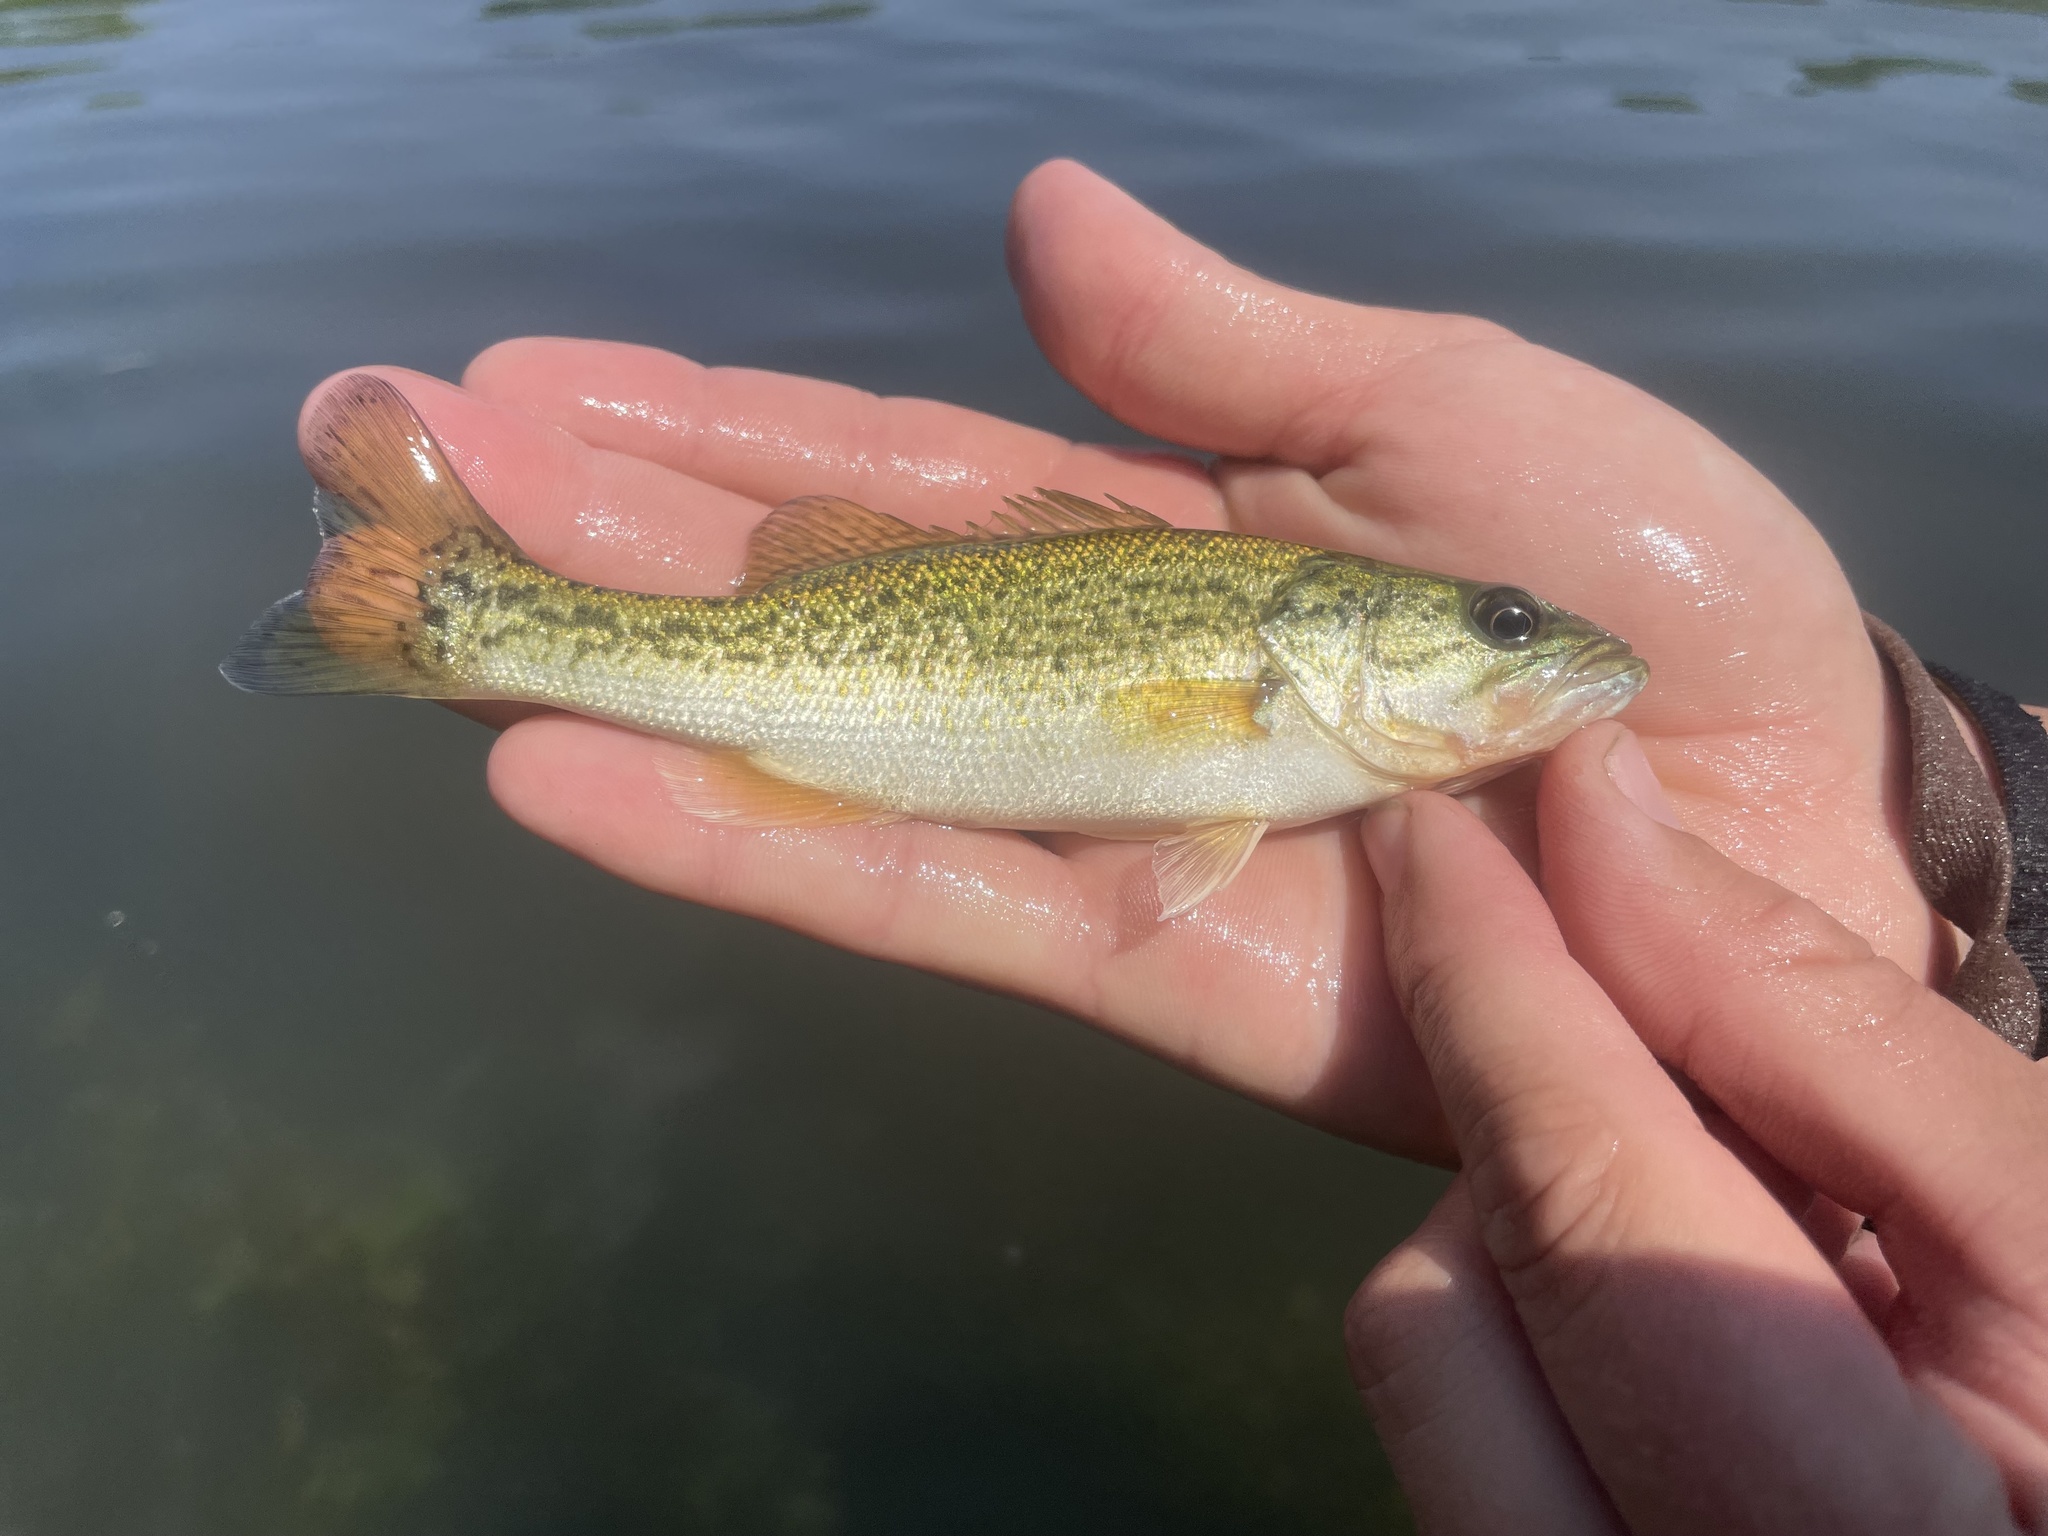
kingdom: Animalia
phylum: Chordata
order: Perciformes
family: Centrarchidae
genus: Micropterus
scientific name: Micropterus
